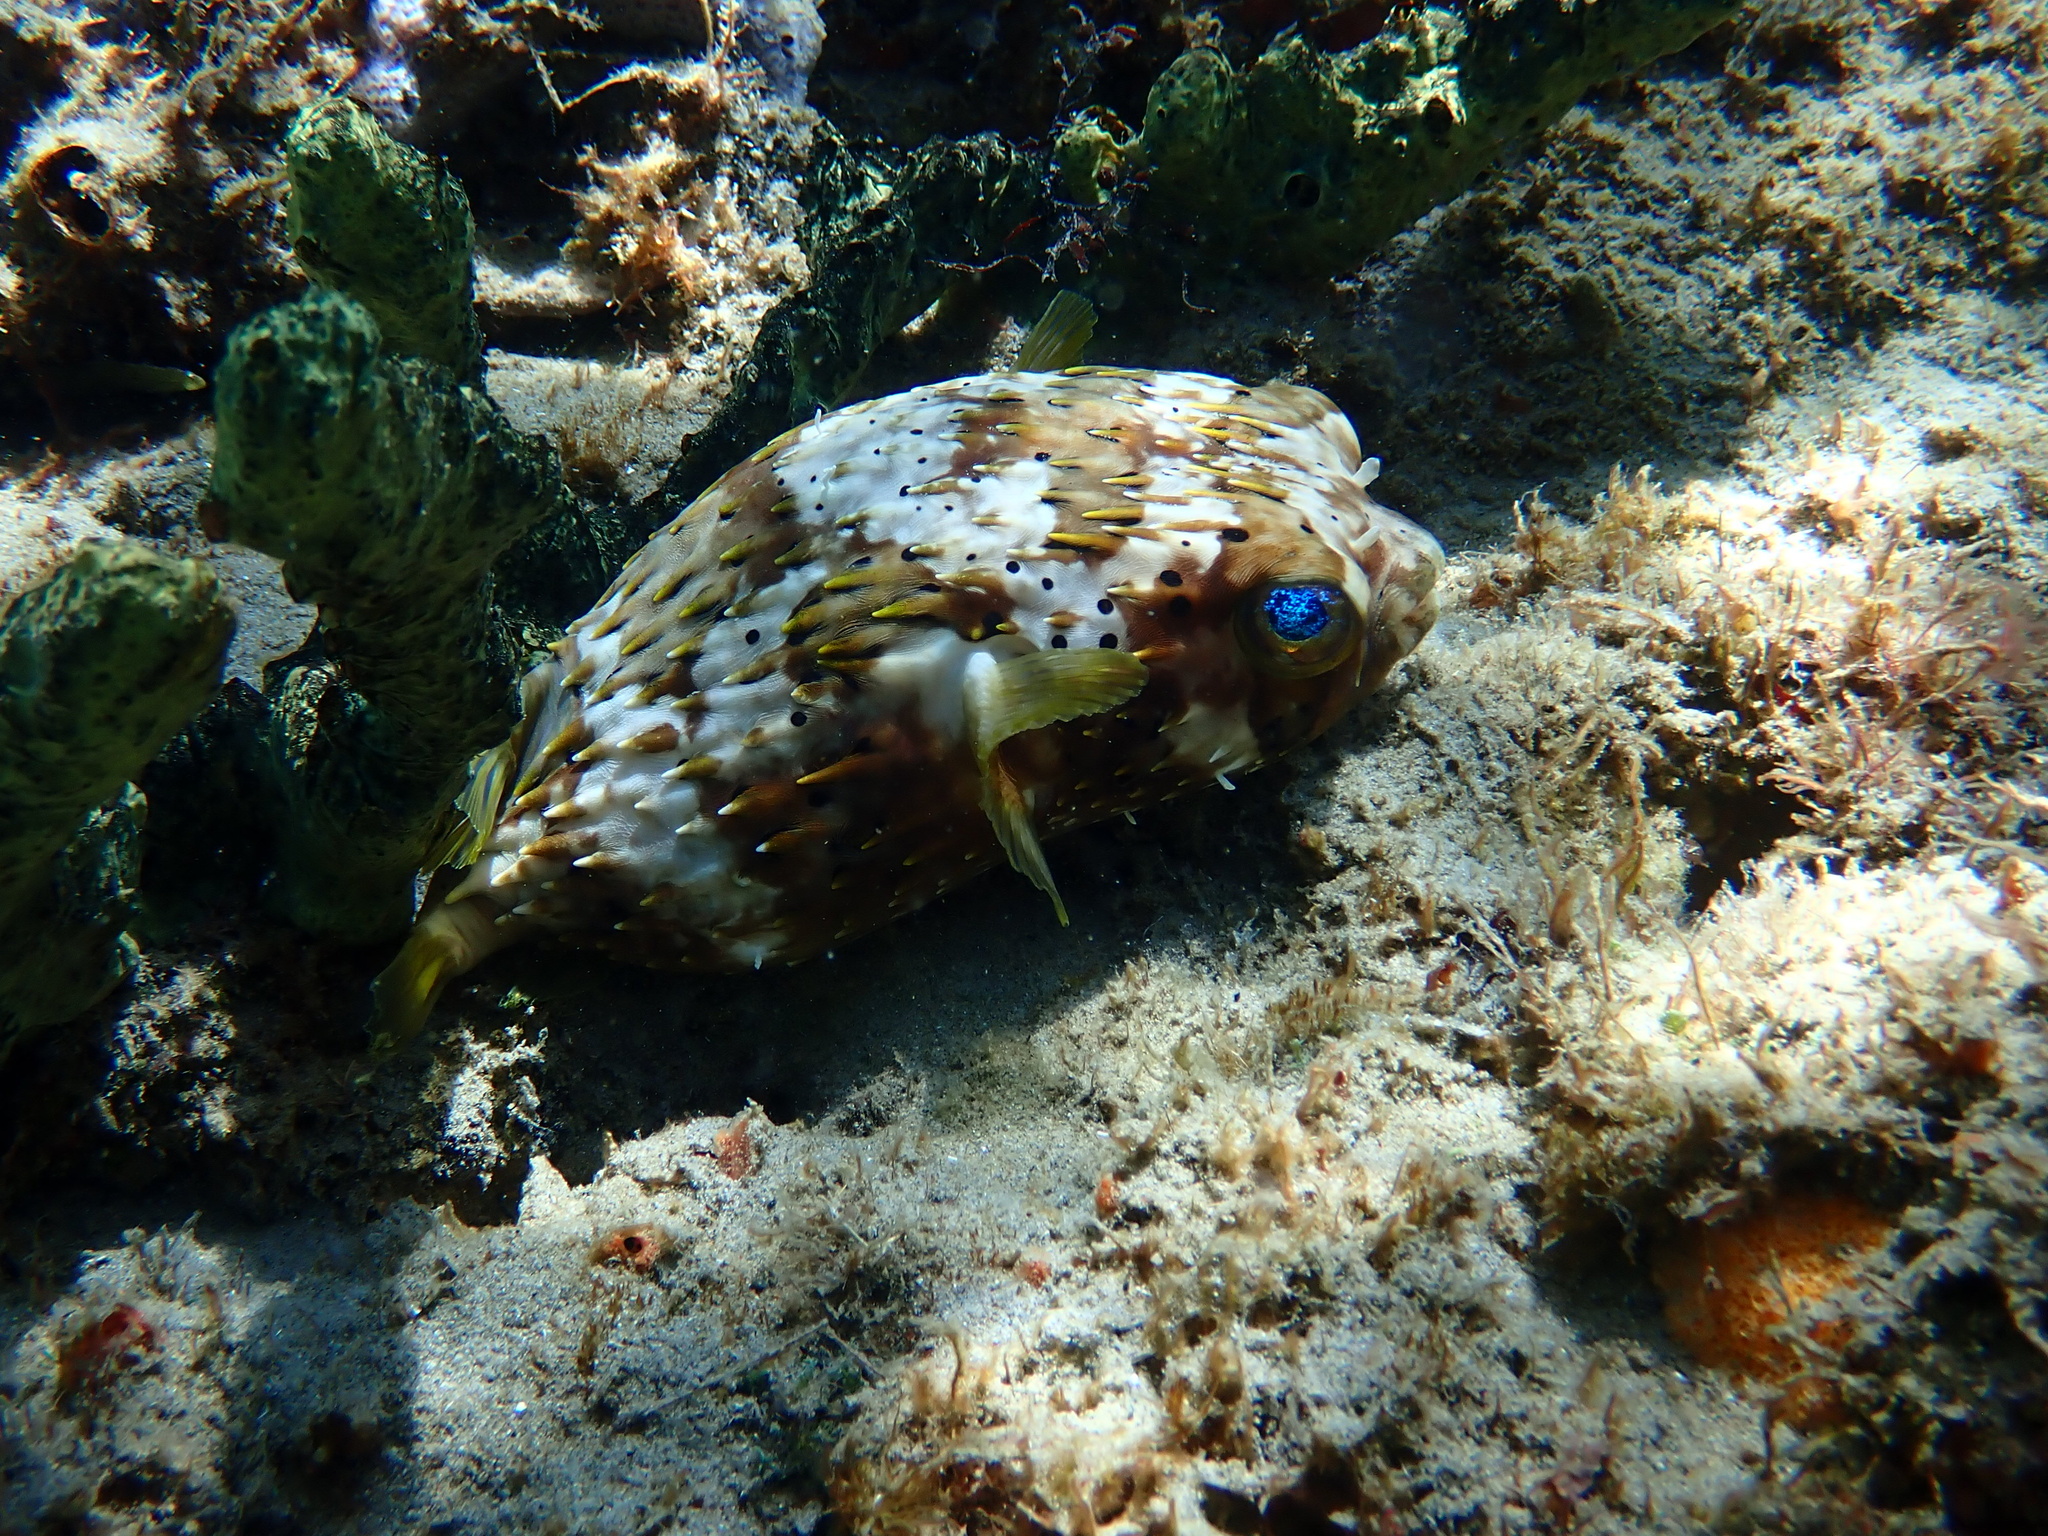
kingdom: Animalia
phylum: Chordata
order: Tetraodontiformes
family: Diodontidae
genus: Diodon
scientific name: Diodon holocanthus
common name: Balloonfish
